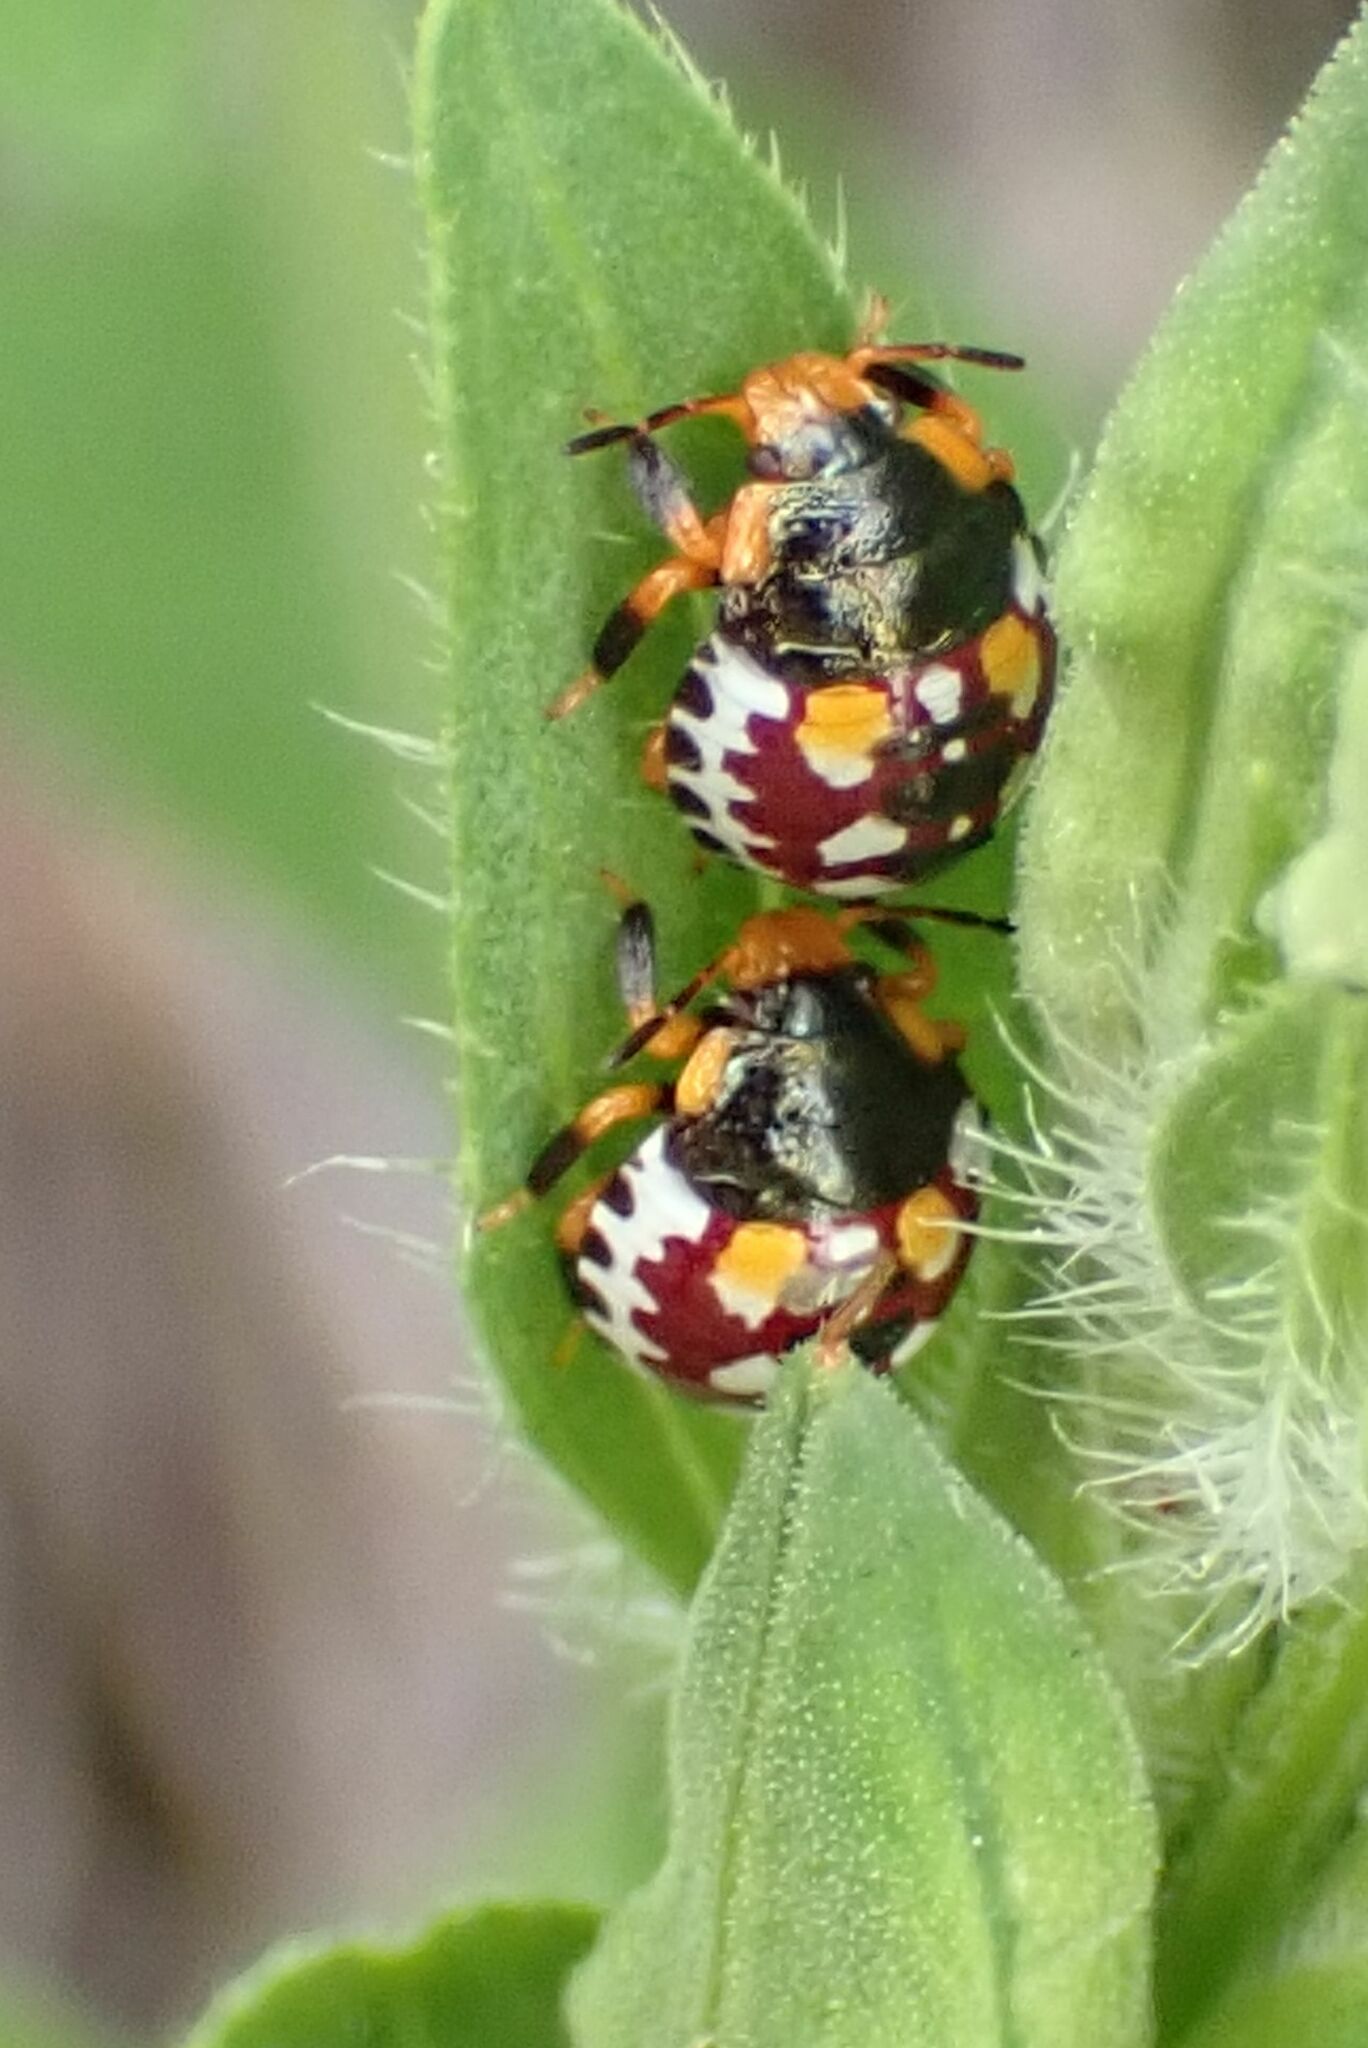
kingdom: Animalia
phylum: Arthropoda
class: Insecta
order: Hemiptera
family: Pentatomidae
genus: Caura
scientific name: Caura rufiventris
